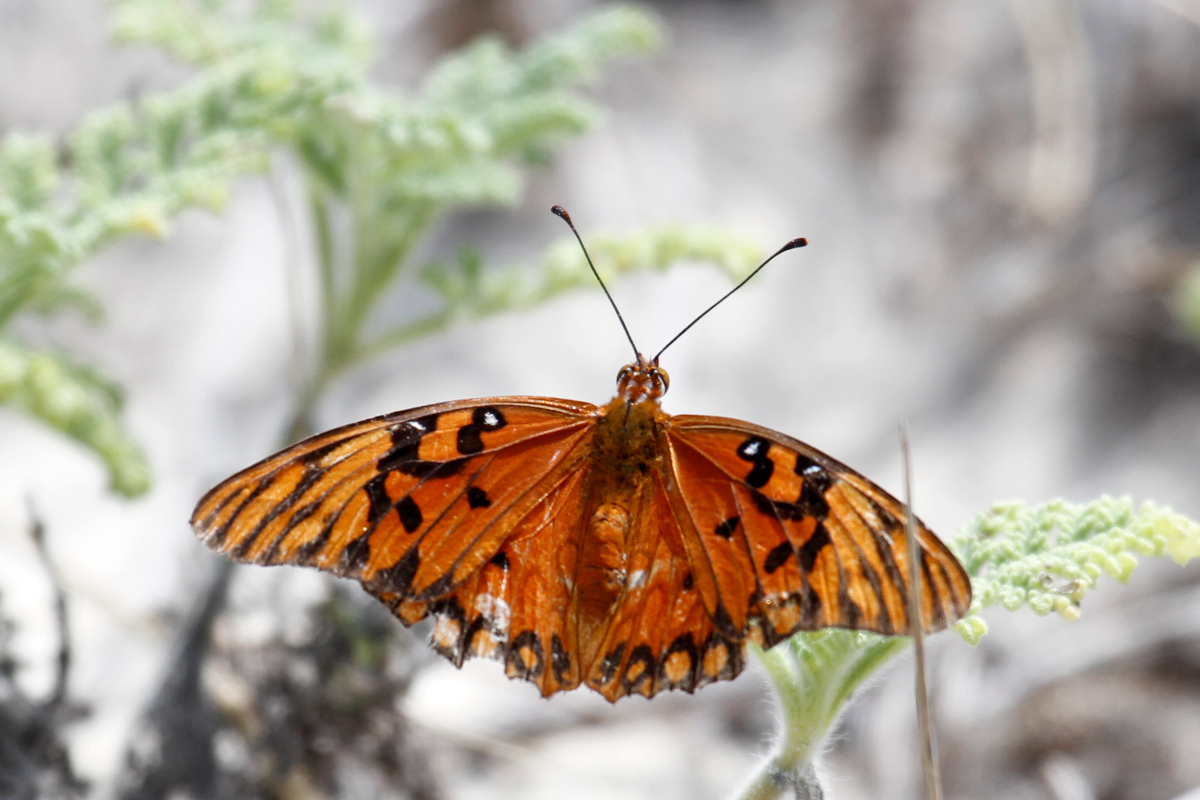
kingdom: Animalia
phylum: Arthropoda
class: Insecta
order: Lepidoptera
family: Nymphalidae
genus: Dione
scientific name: Dione vanillae
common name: Gulf fritillary
